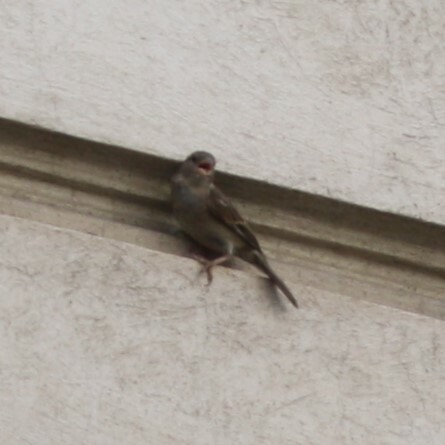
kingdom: Animalia
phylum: Chordata
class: Aves
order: Passeriformes
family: Passeridae
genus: Passer
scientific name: Passer domesticus
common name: House sparrow
